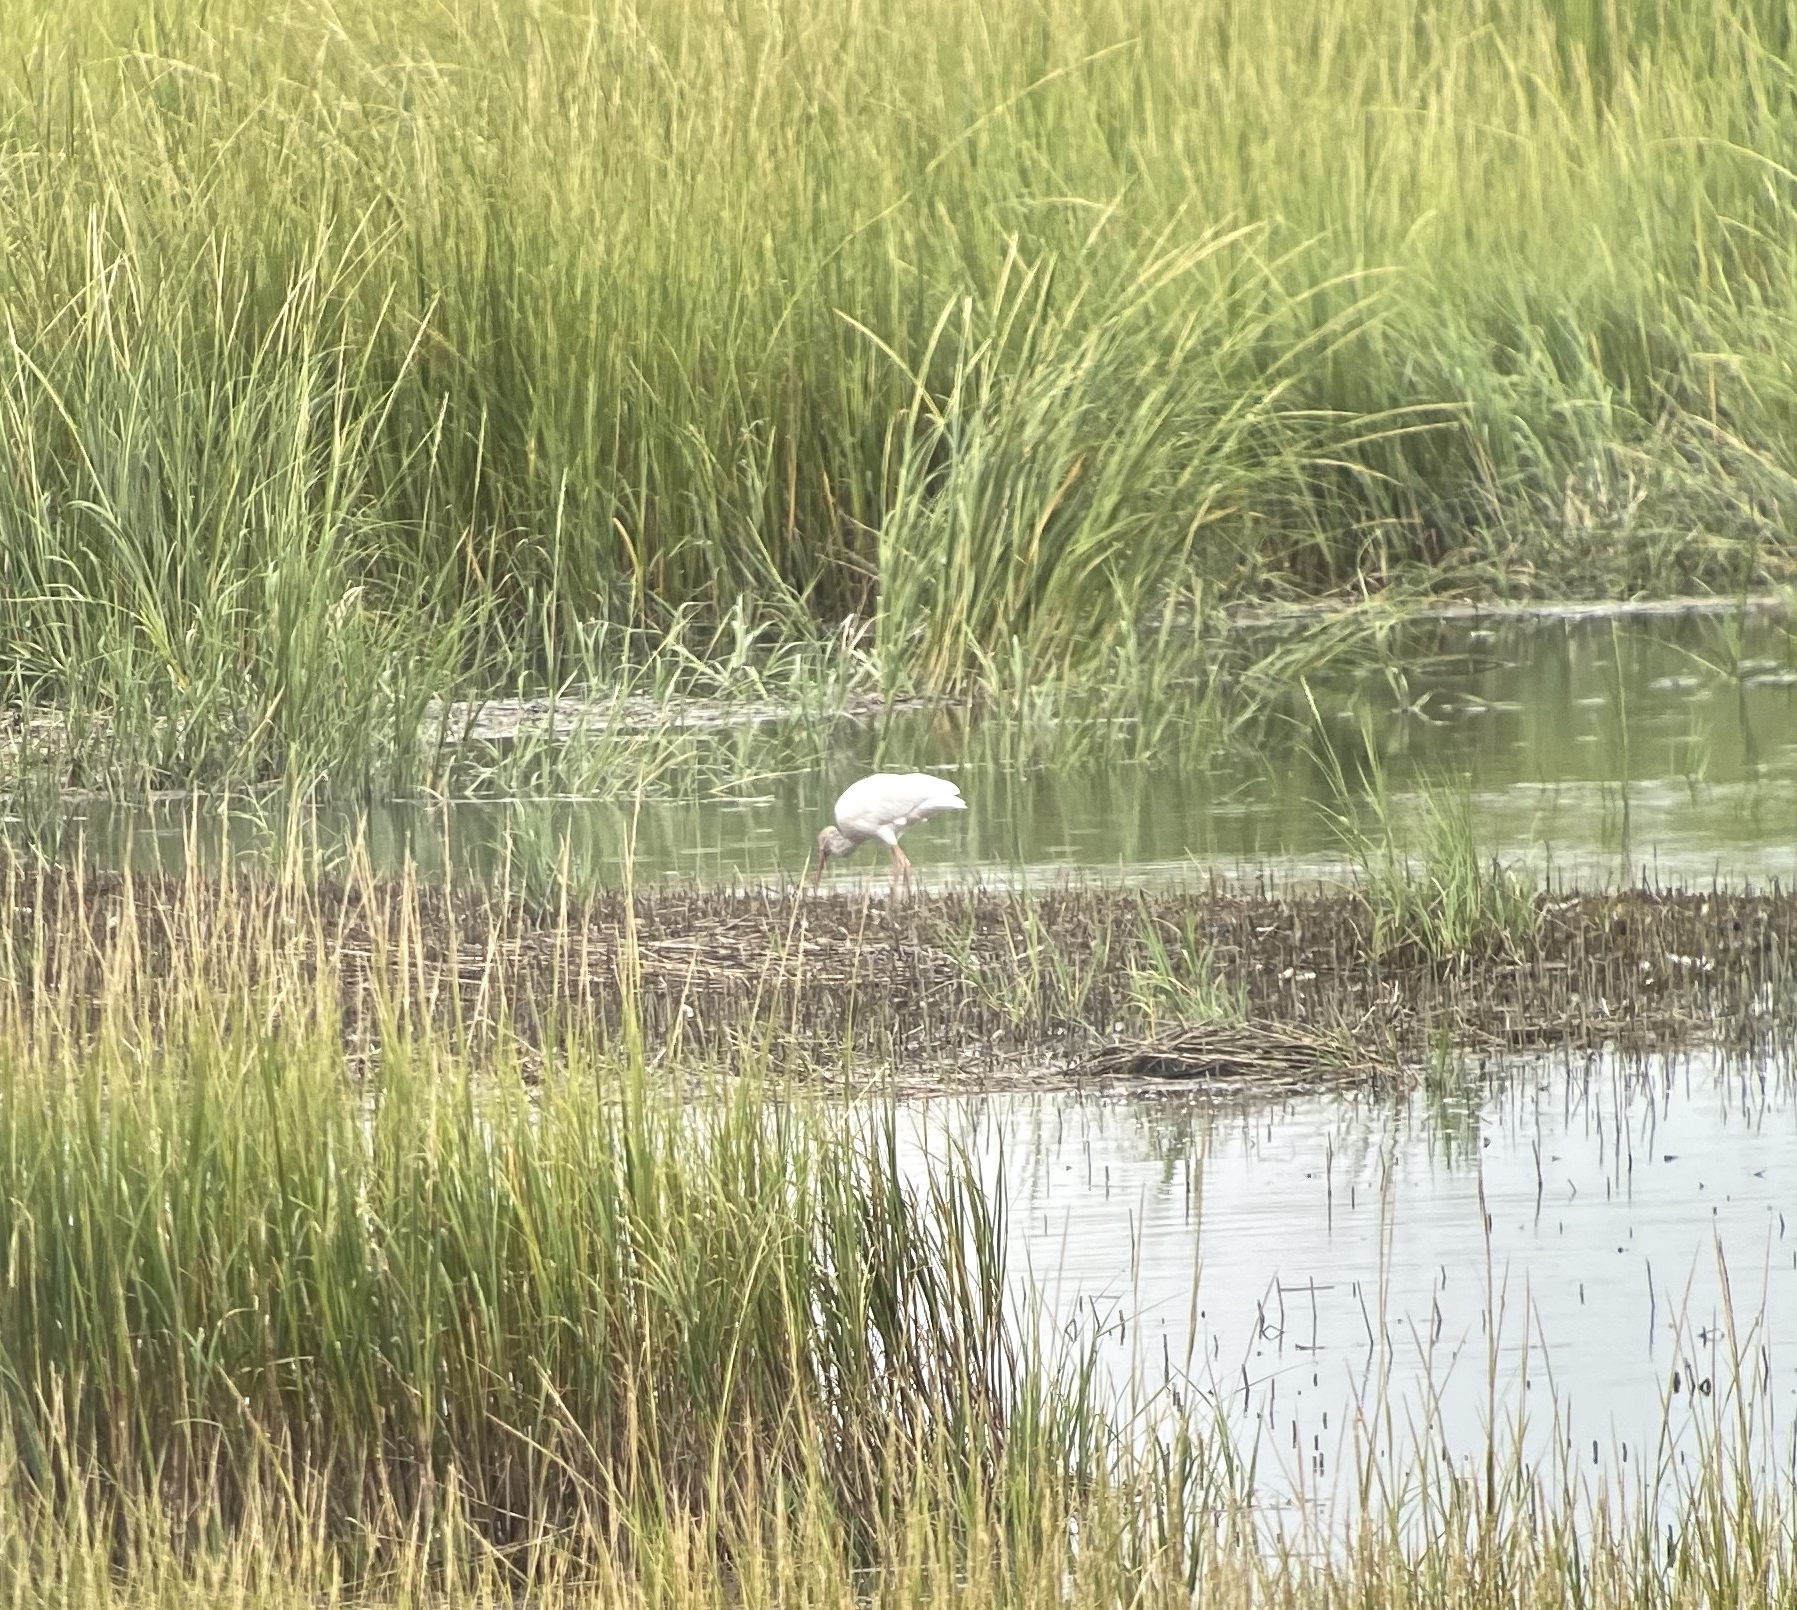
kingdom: Animalia
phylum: Chordata
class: Aves
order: Pelecaniformes
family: Threskiornithidae
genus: Eudocimus
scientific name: Eudocimus albus
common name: White ibis
